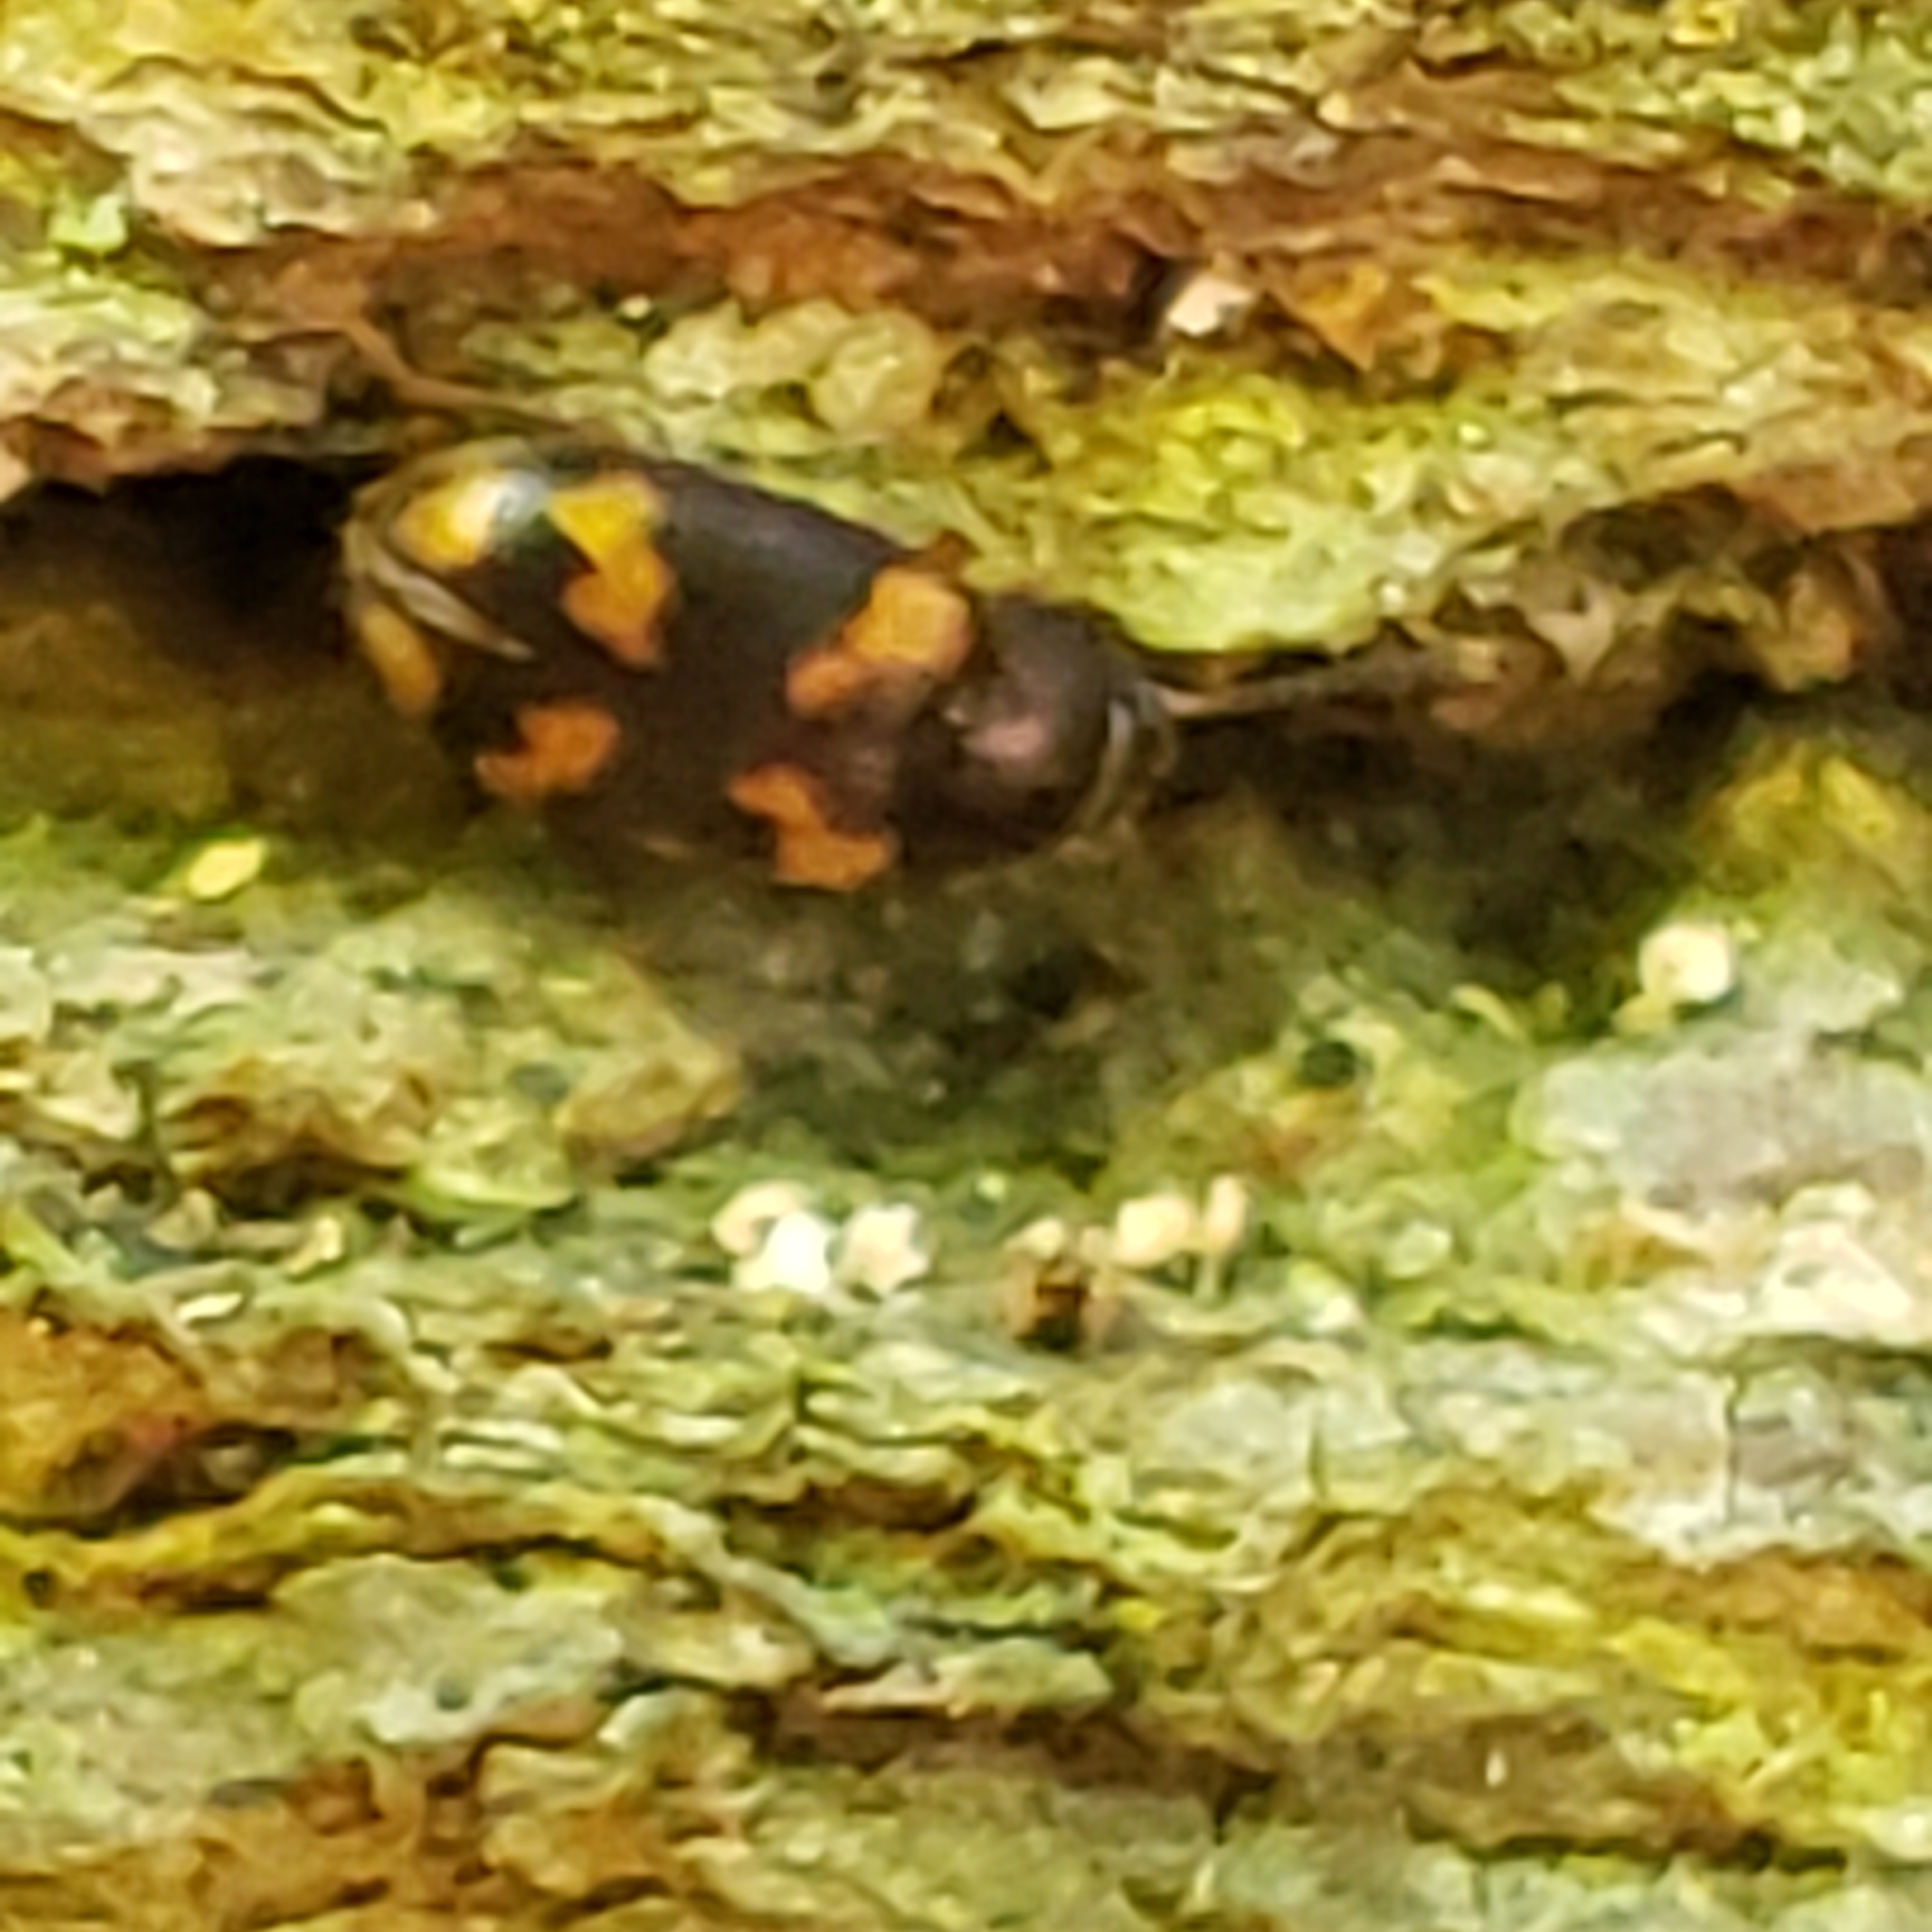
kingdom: Animalia
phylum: Arthropoda
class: Insecta
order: Coleoptera
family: Mycetophagidae
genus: Mycetophagus
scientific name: Mycetophagus serrulatus
